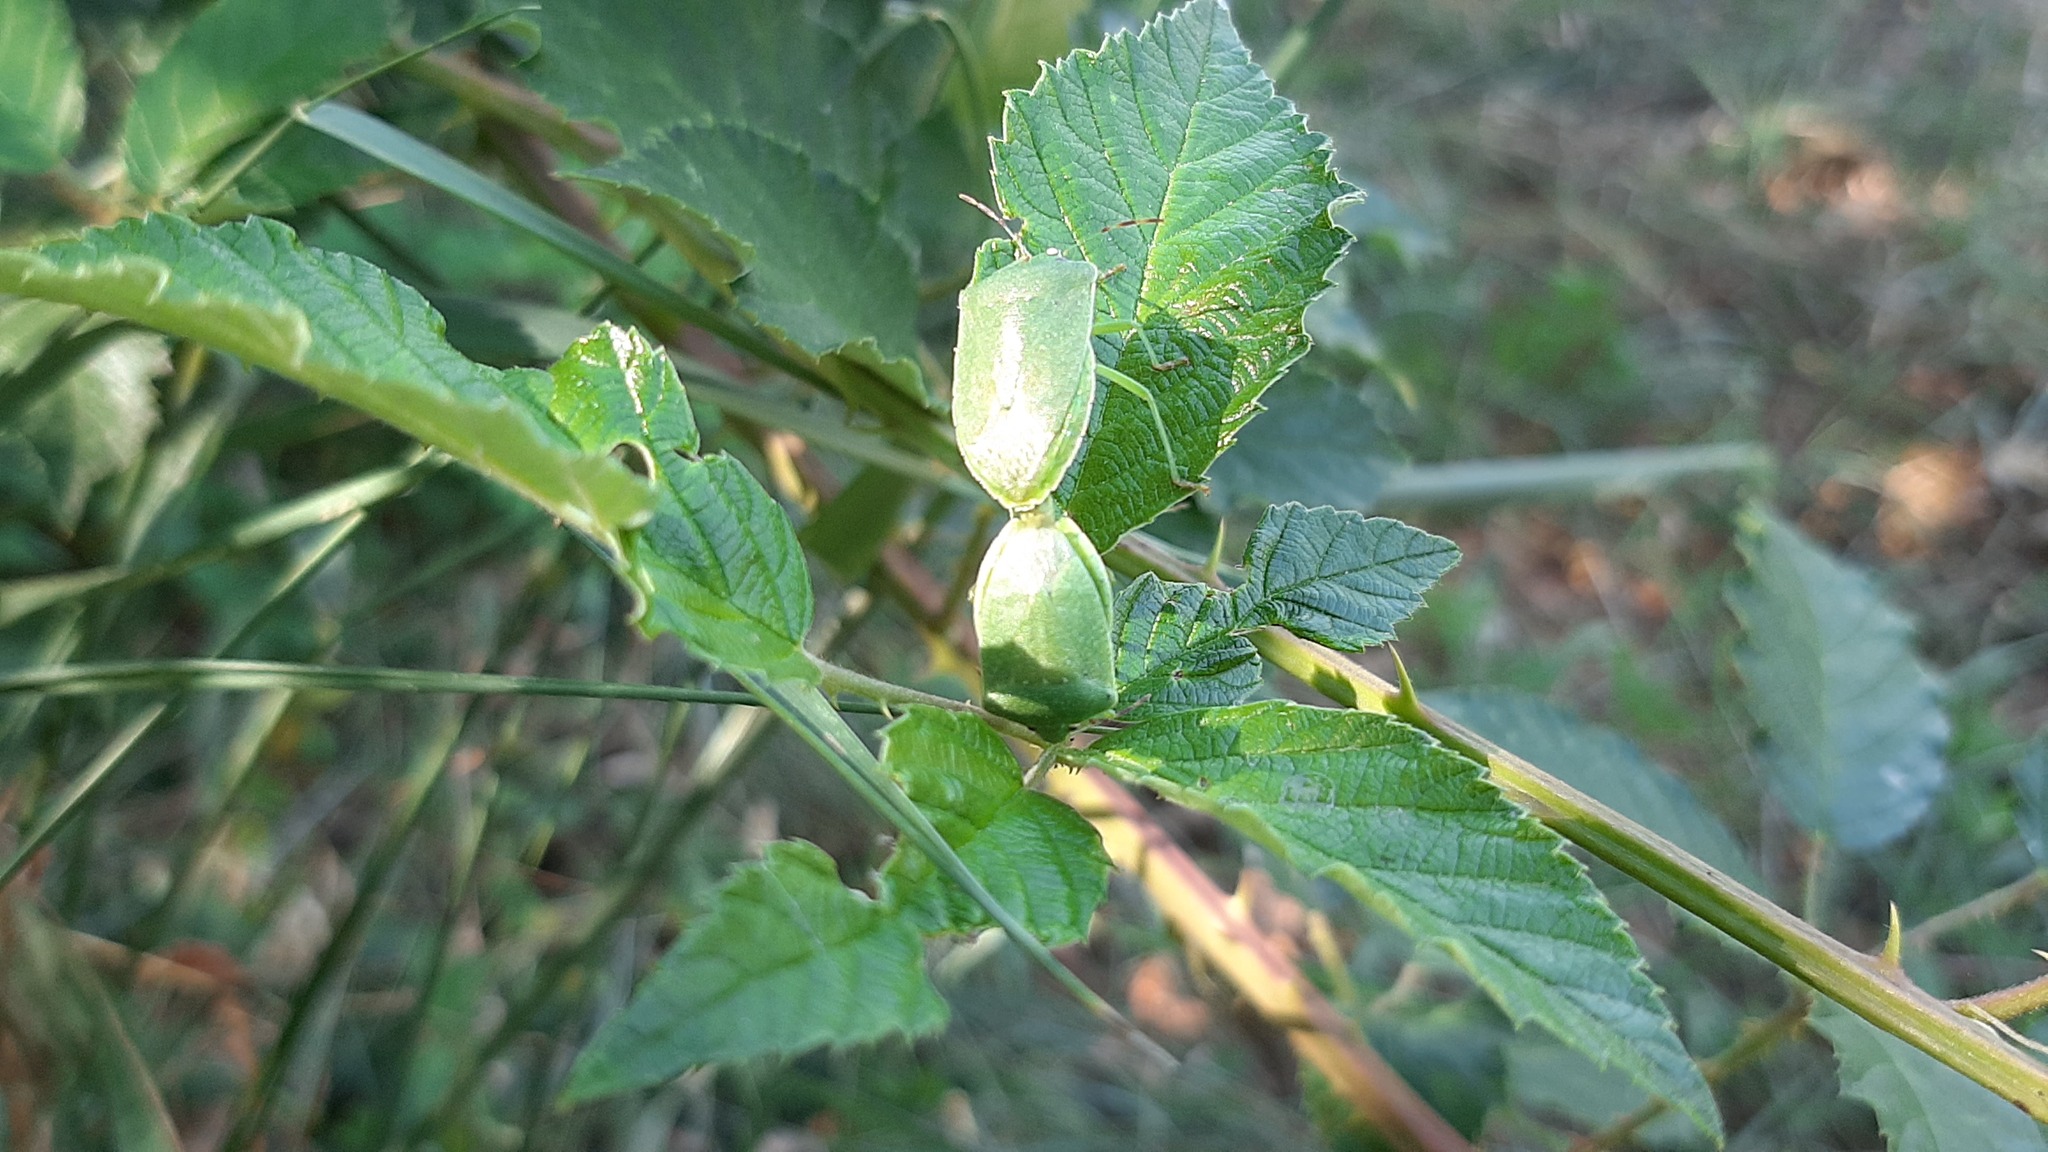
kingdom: Animalia
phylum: Arthropoda
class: Insecta
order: Hemiptera
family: Pentatomidae
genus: Nezara
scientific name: Nezara viridula
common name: Southern green stink bug
